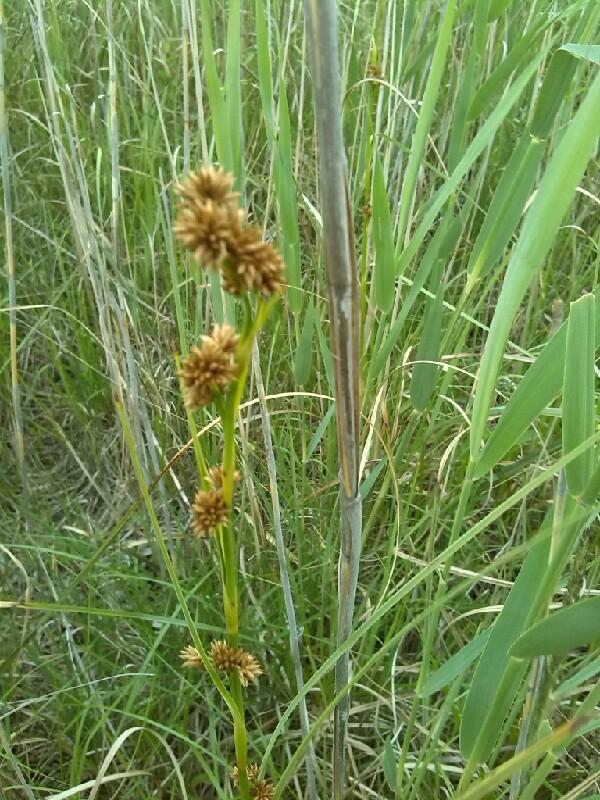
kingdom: Plantae
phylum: Tracheophyta
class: Liliopsida
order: Poales
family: Cyperaceae
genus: Cladium
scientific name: Cladium mariscus
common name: Great fen-sedge
